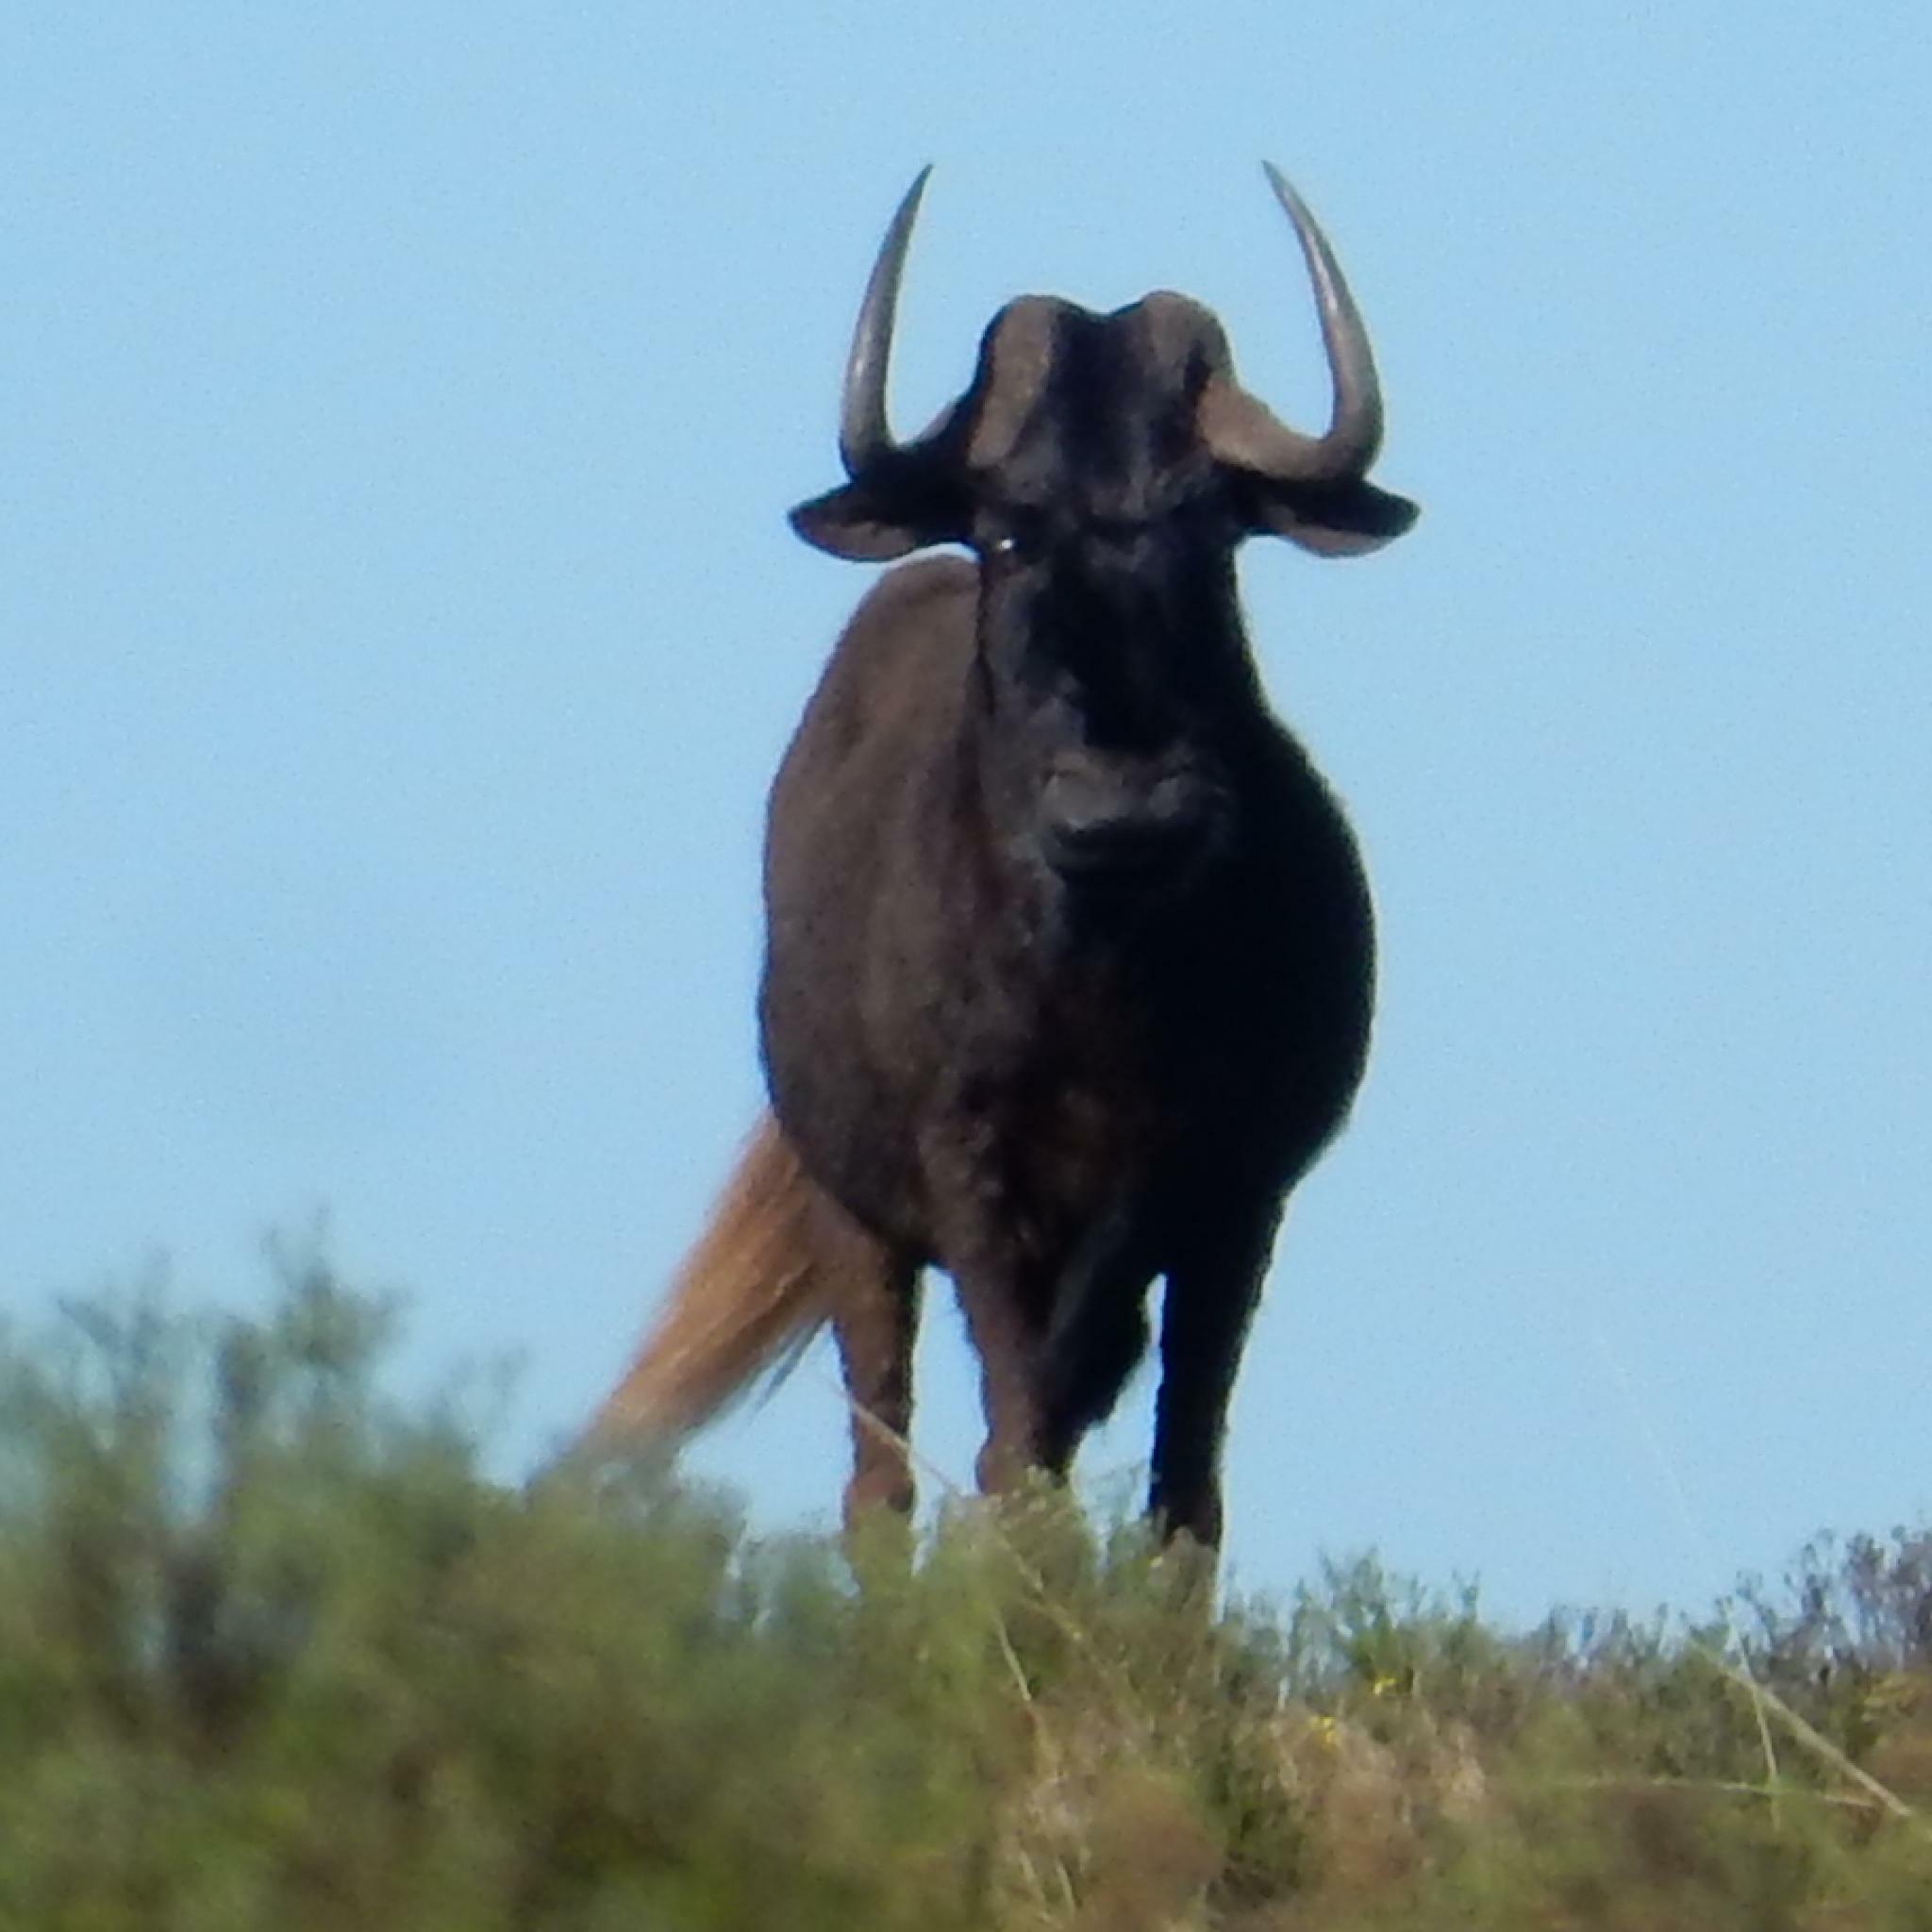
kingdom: Animalia
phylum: Chordata
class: Mammalia
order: Artiodactyla
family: Bovidae
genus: Connochaetes
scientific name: Connochaetes gnou
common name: Black wildebeest
